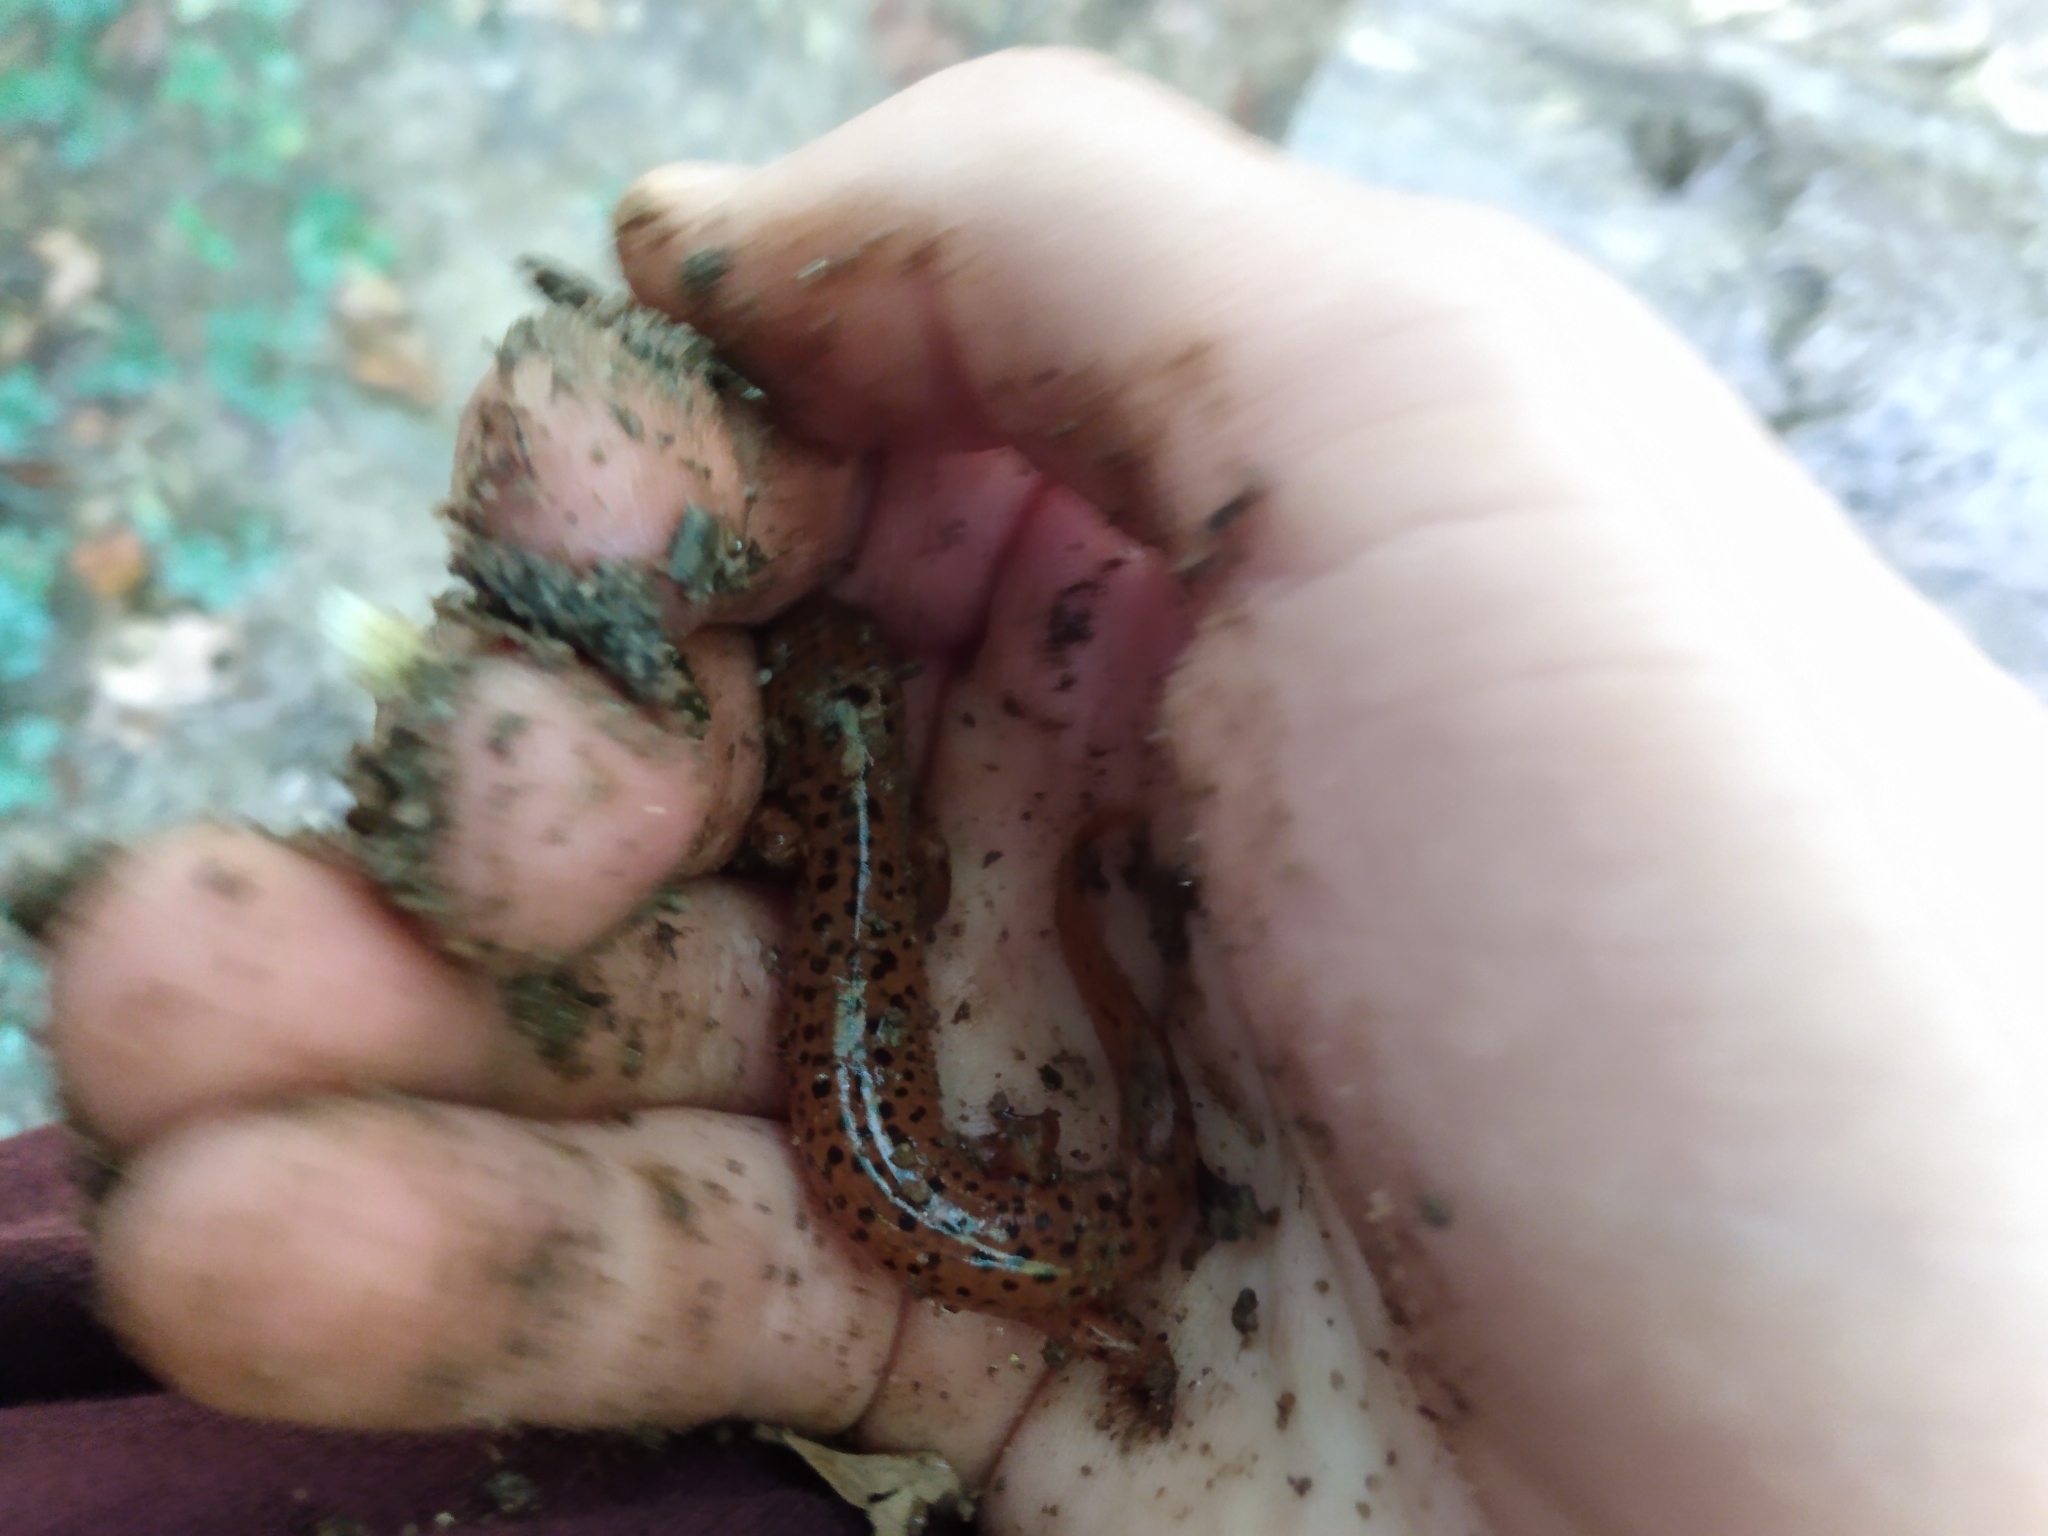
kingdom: Animalia
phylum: Chordata
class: Amphibia
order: Caudata
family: Plethodontidae
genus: Pseudotriton
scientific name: Pseudotriton ruber
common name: Red salamander
